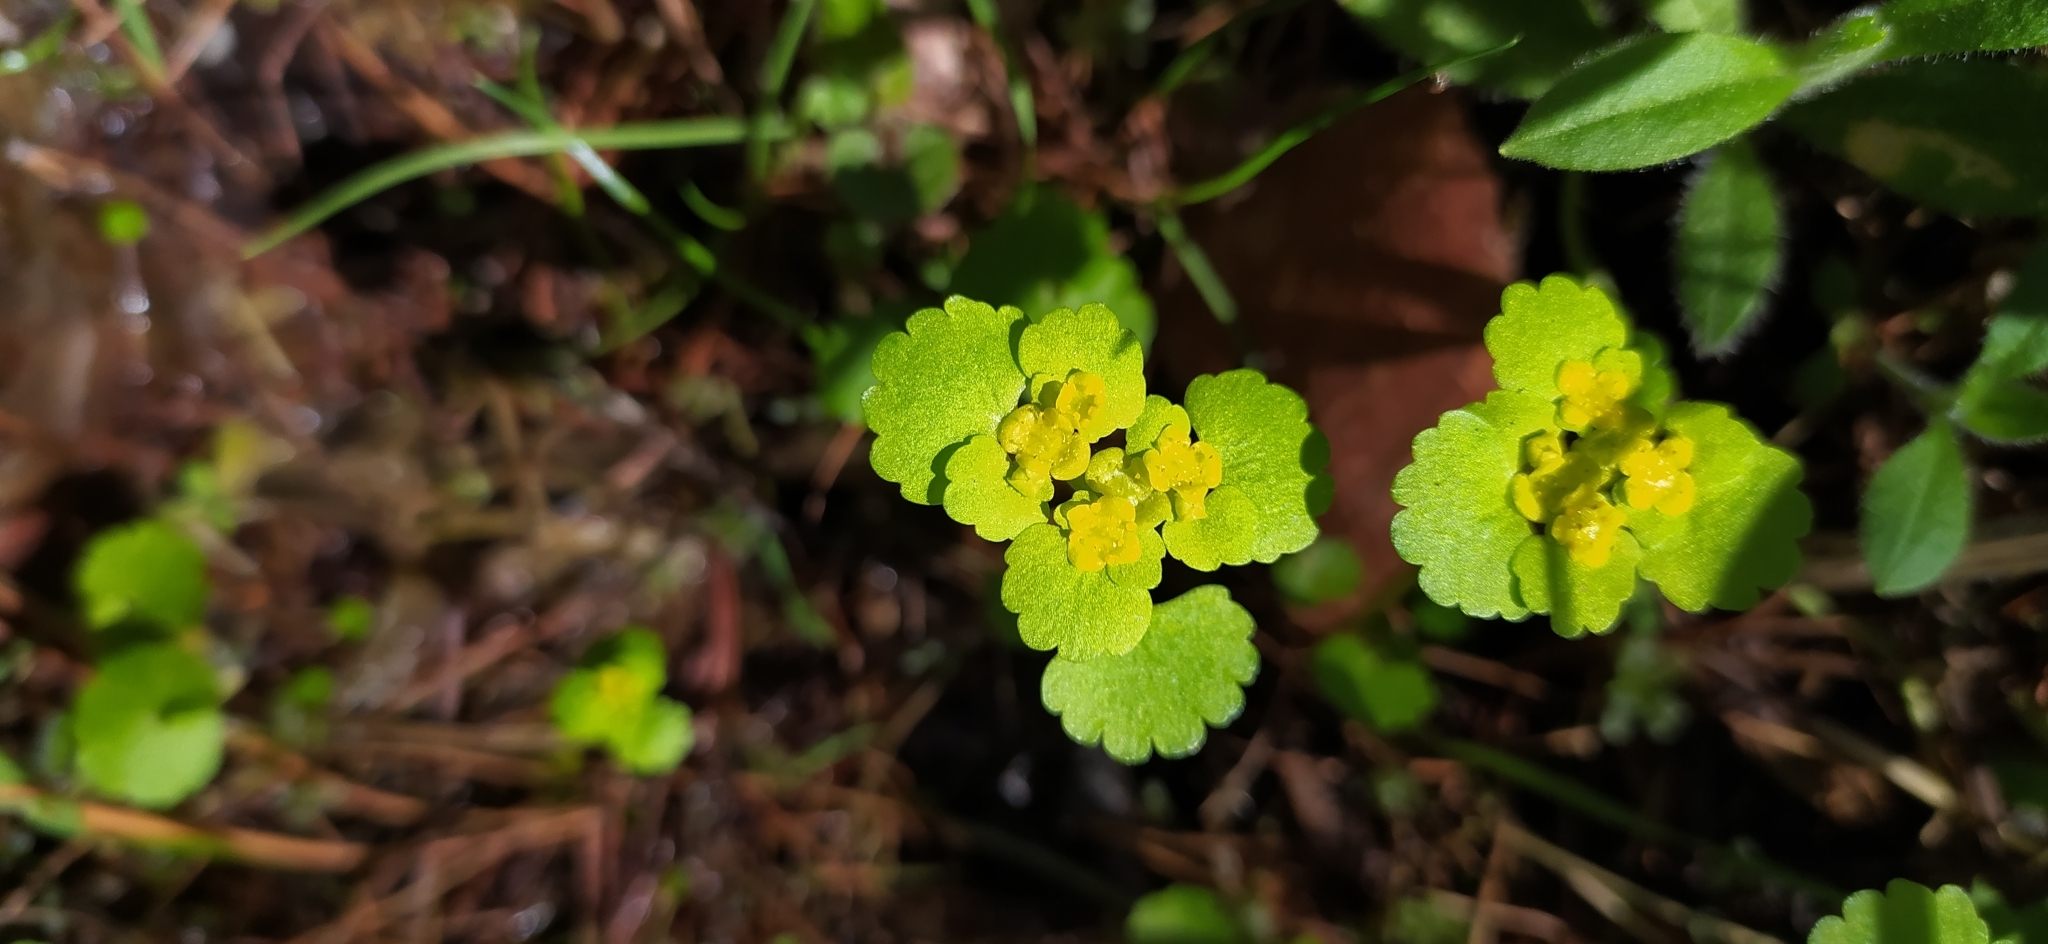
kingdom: Plantae
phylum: Tracheophyta
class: Magnoliopsida
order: Saxifragales
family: Saxifragaceae
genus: Chrysosplenium
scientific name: Chrysosplenium alternifolium
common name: Alternate-leaved golden-saxifrage
